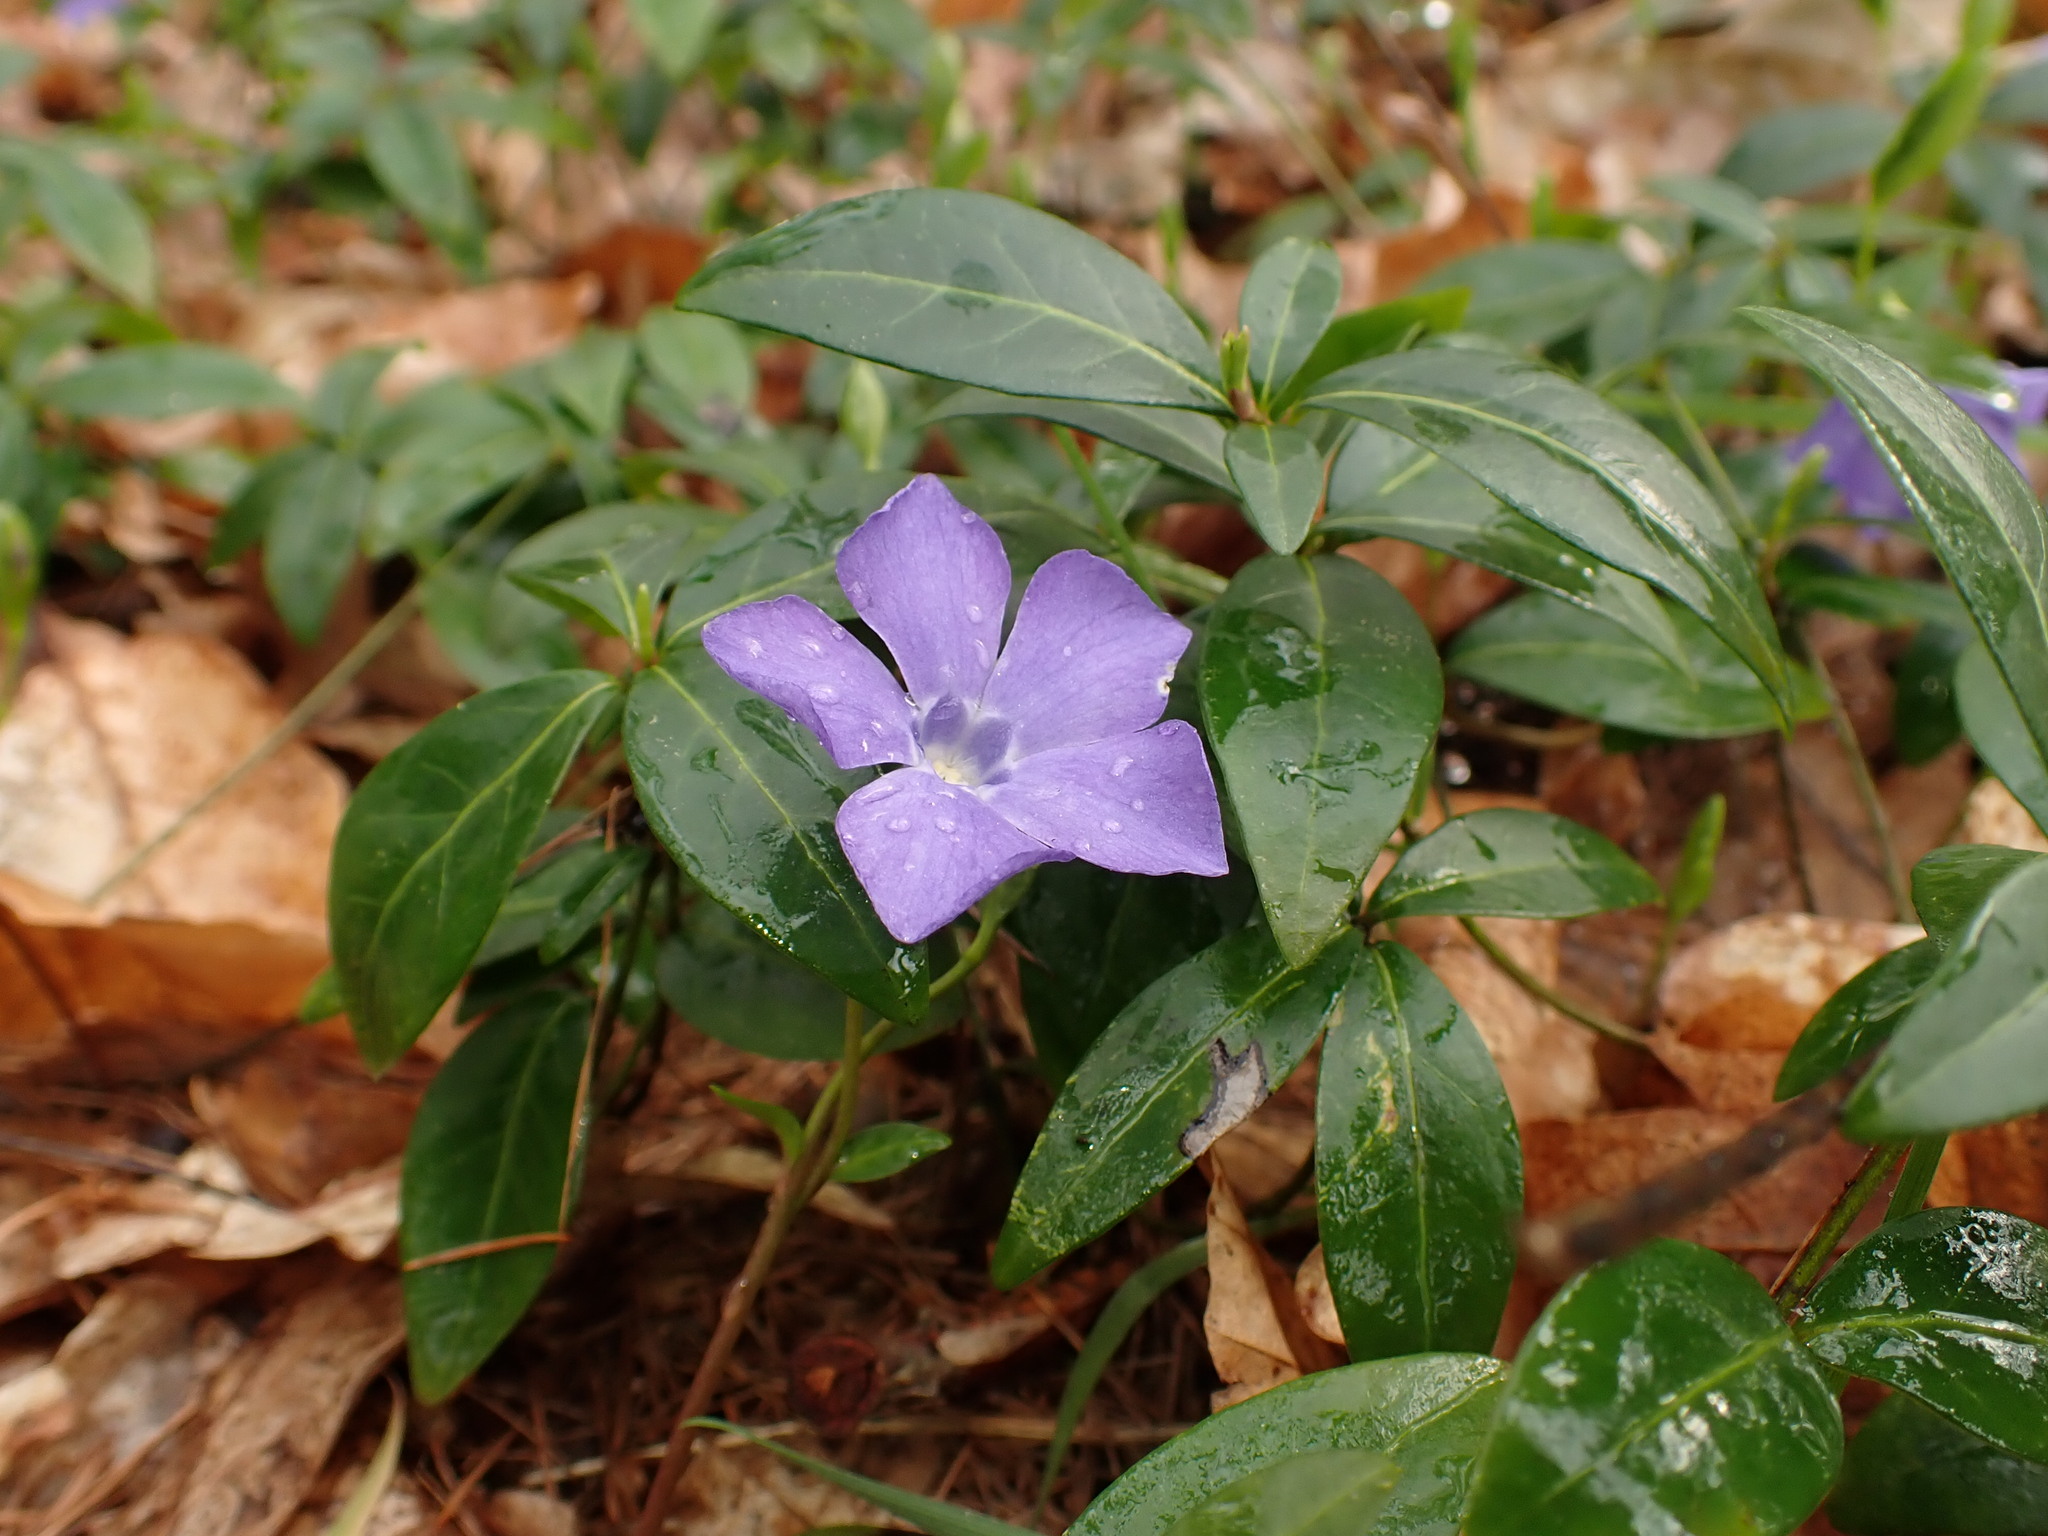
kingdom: Plantae
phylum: Tracheophyta
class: Magnoliopsida
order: Gentianales
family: Apocynaceae
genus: Vinca
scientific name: Vinca minor
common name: Lesser periwinkle
